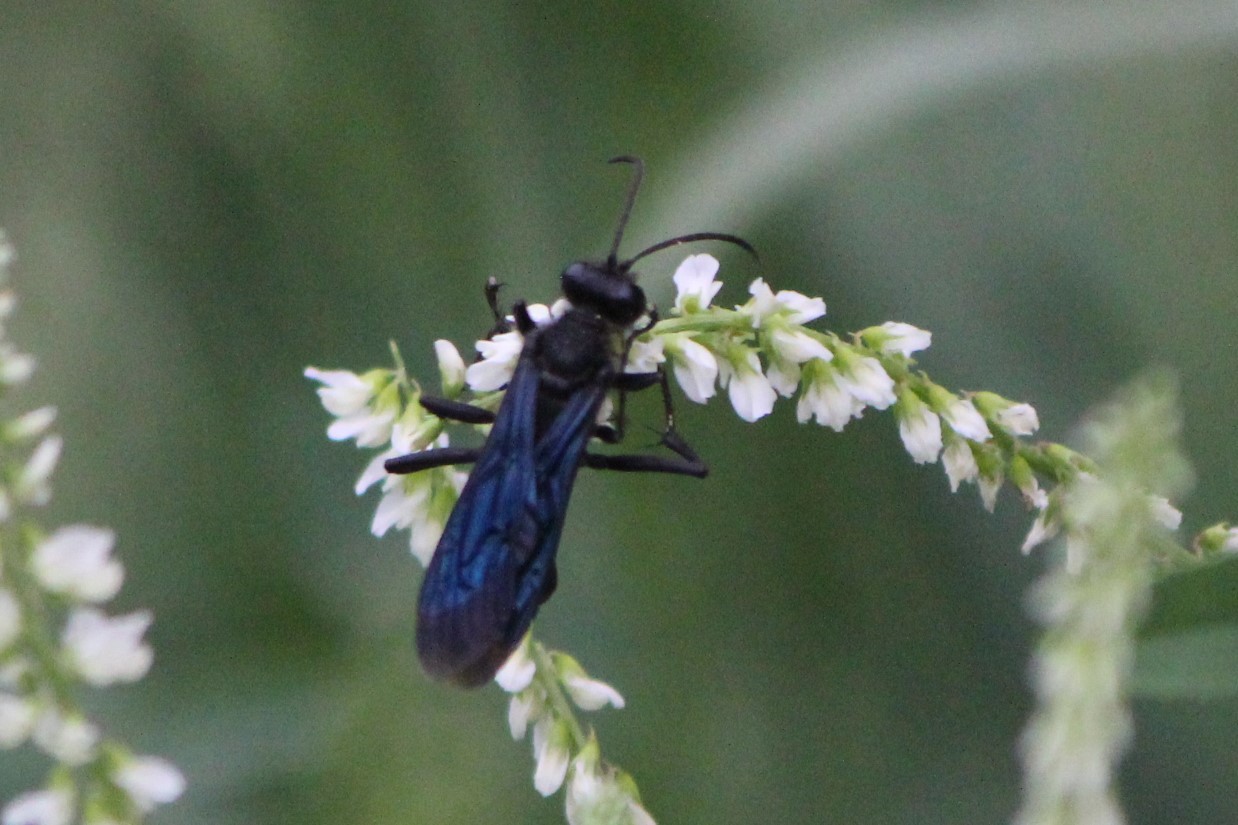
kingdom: Animalia
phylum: Arthropoda
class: Insecta
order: Hymenoptera
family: Sphecidae
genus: Sphex
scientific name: Sphex pensylvanicus
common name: Great black digger wasp
